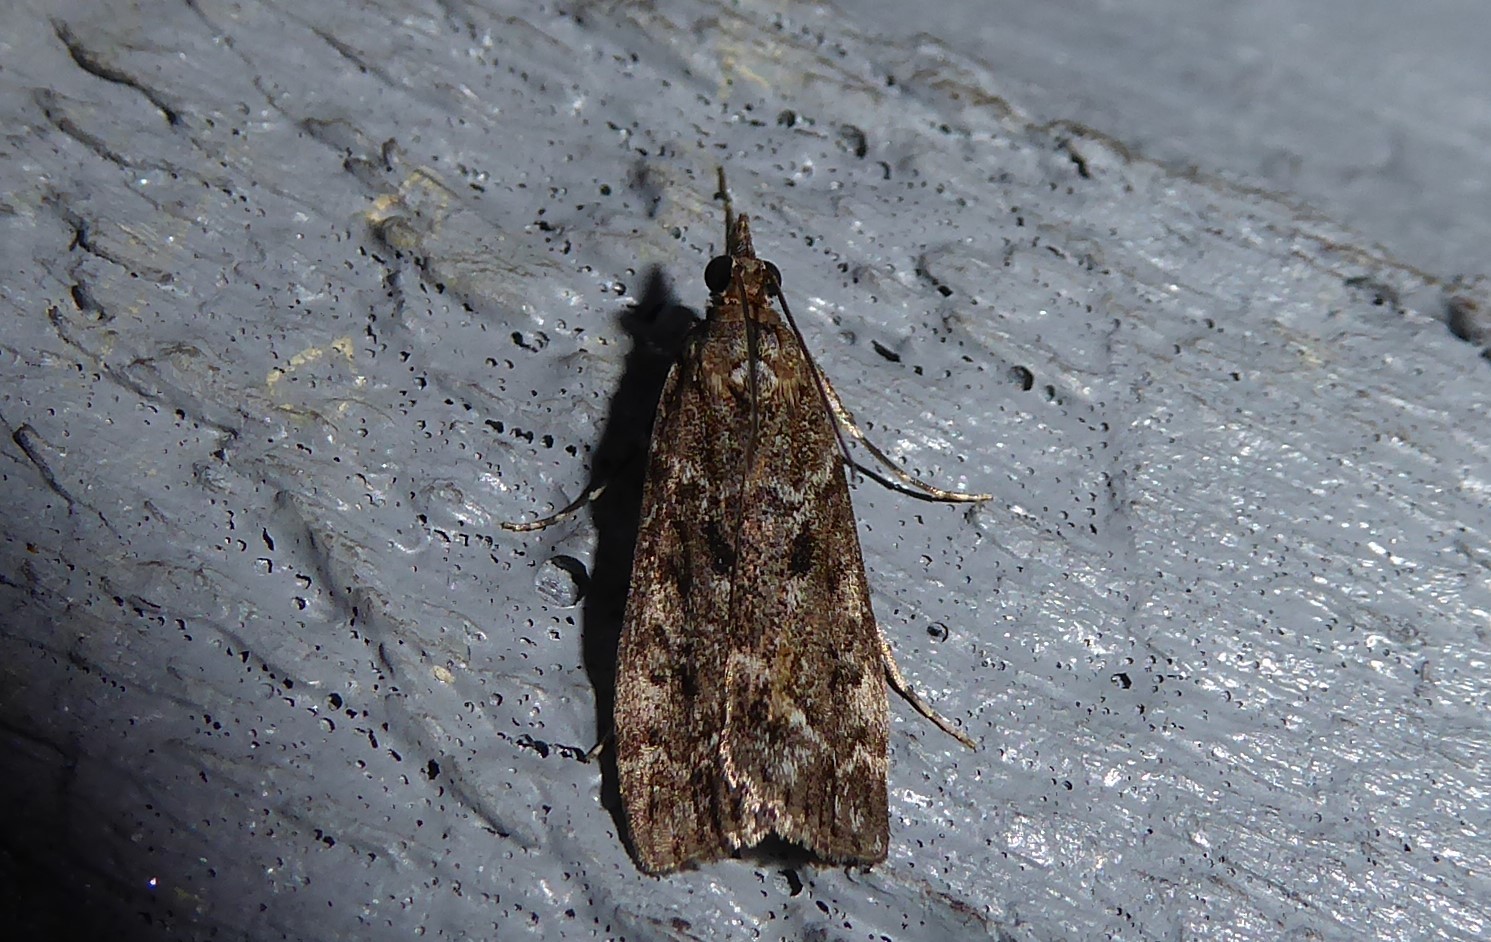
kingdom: Animalia
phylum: Arthropoda
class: Insecta
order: Lepidoptera
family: Crambidae
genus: Eudonia
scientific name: Eudonia submarginalis
